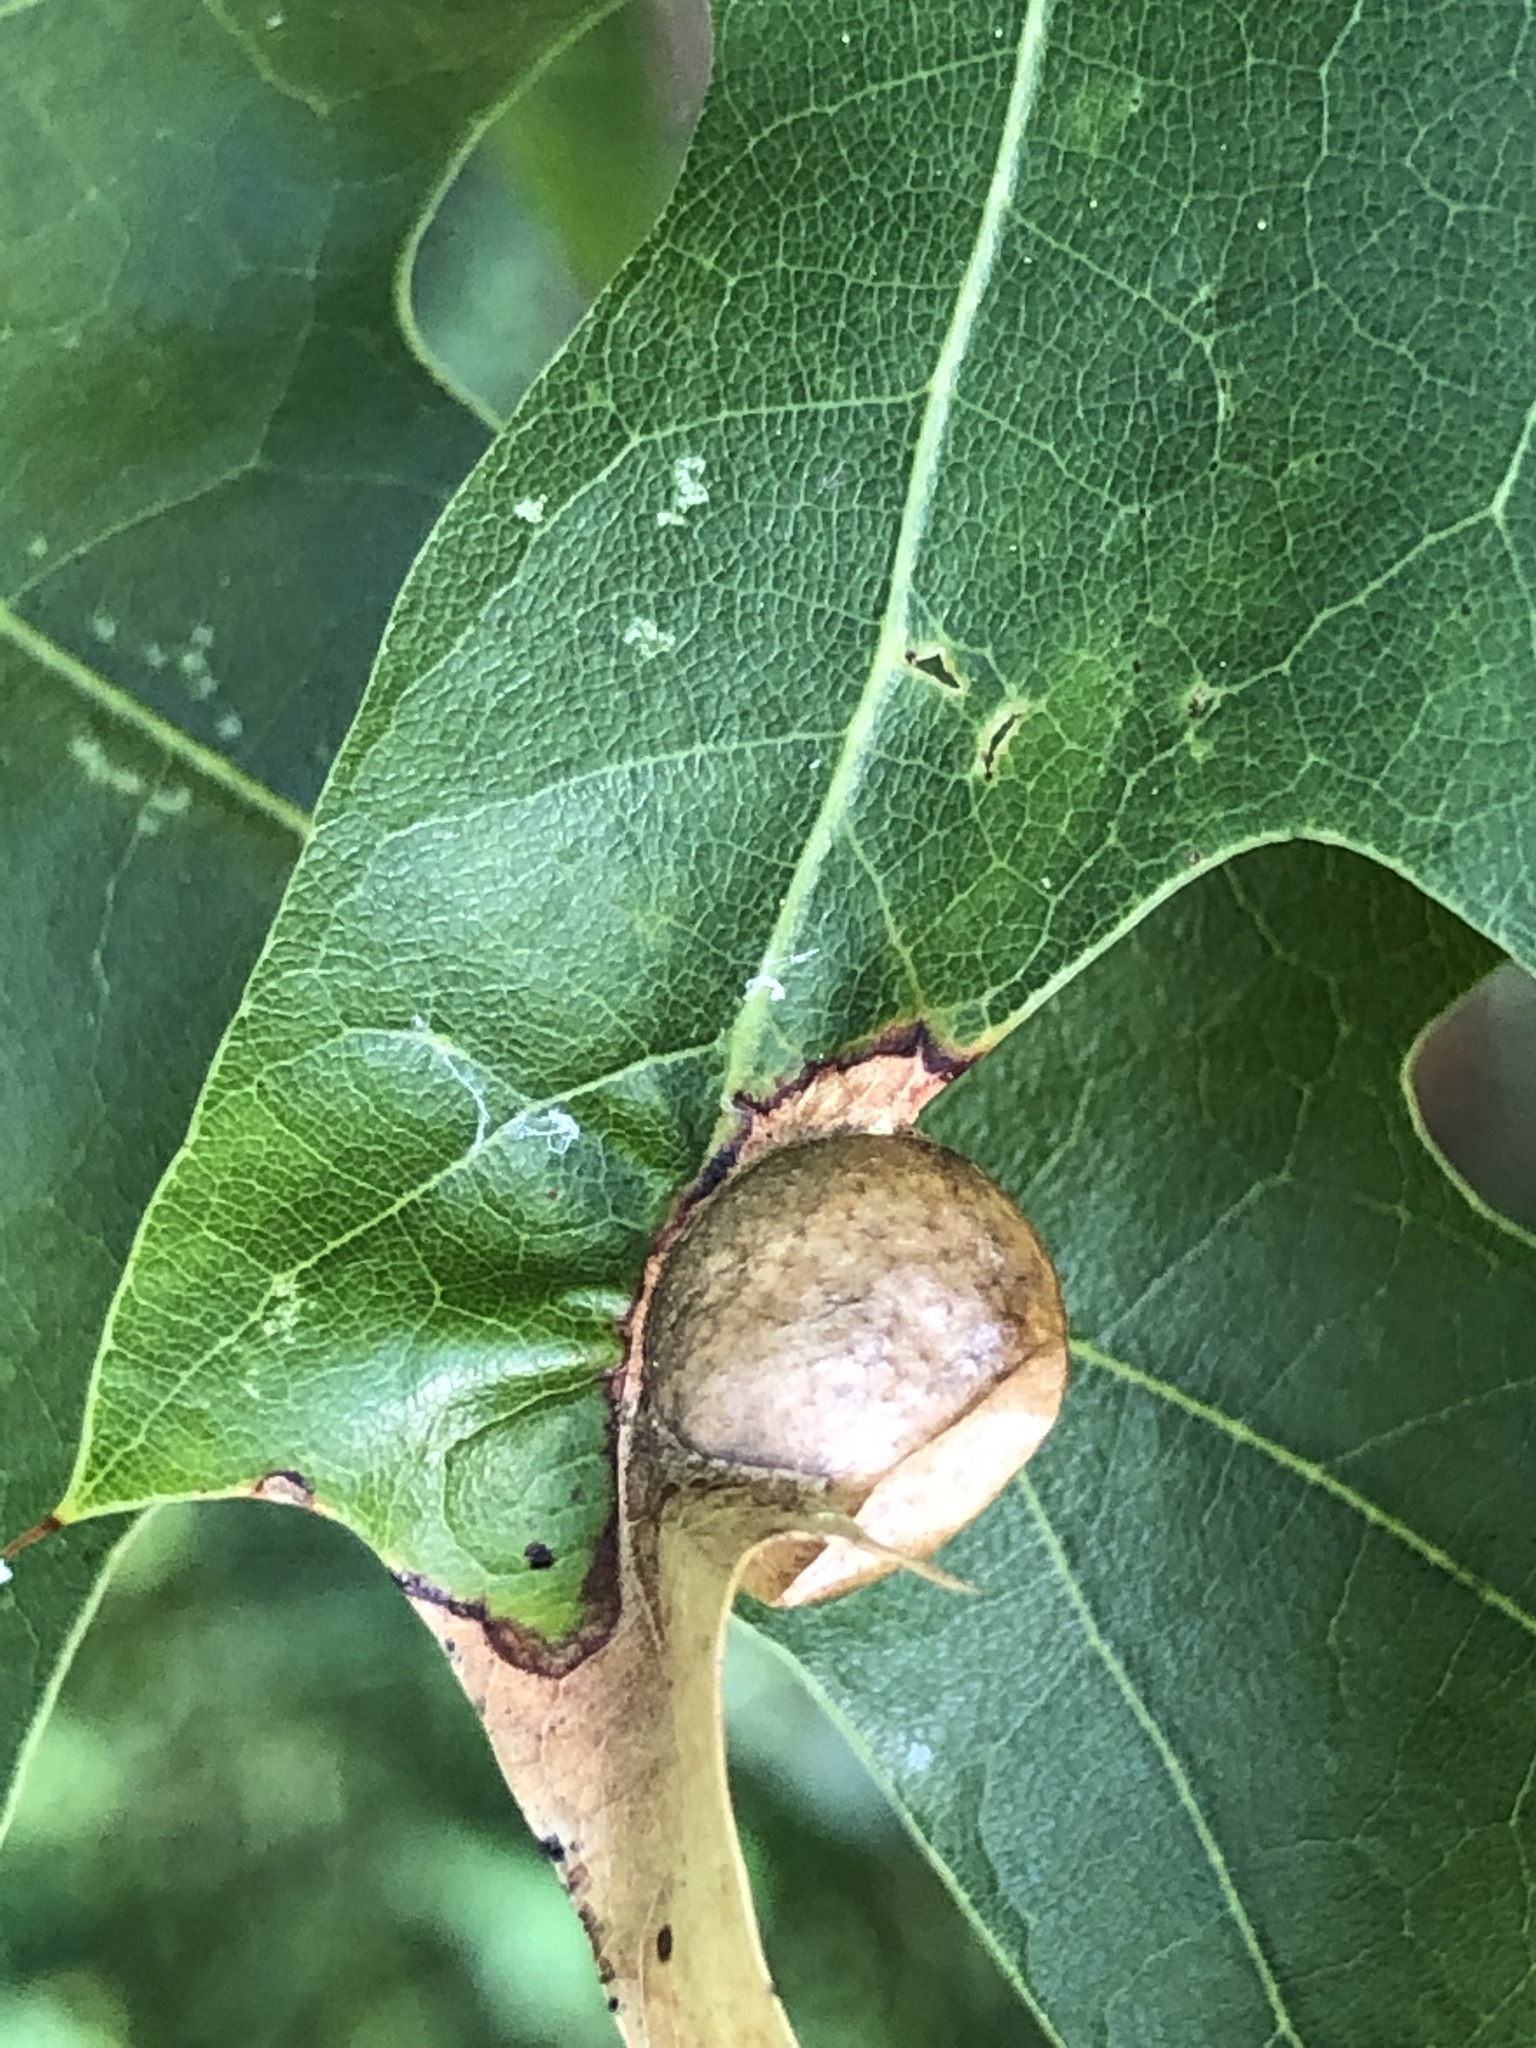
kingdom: Animalia
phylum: Arthropoda
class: Insecta
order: Hymenoptera
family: Cynipidae
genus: Amphibolips
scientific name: Amphibolips
